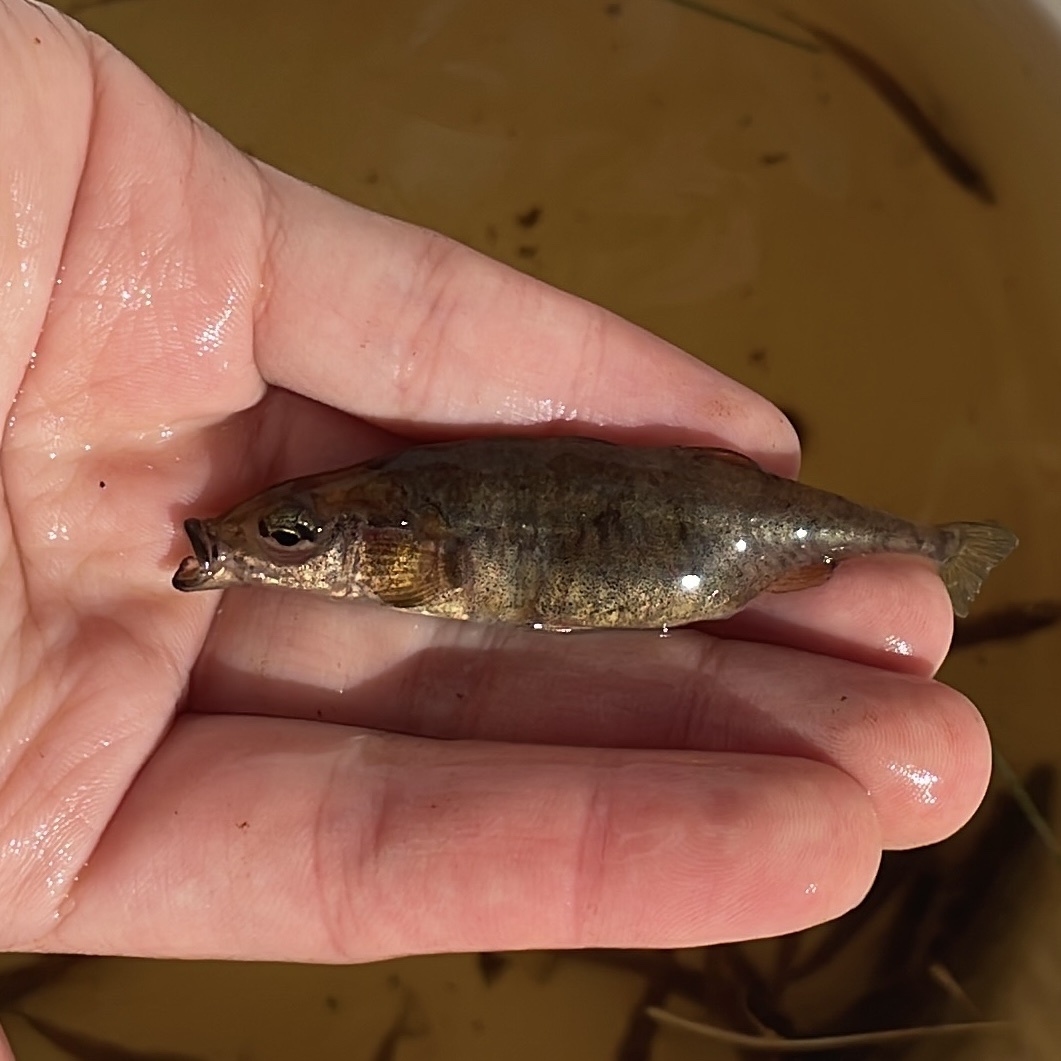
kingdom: Animalia
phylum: Chordata
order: Gasterosteiformes
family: Gasterosteidae
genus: Gasterosteus
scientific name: Gasterosteus aculeatus
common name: Three-spined stickleback
